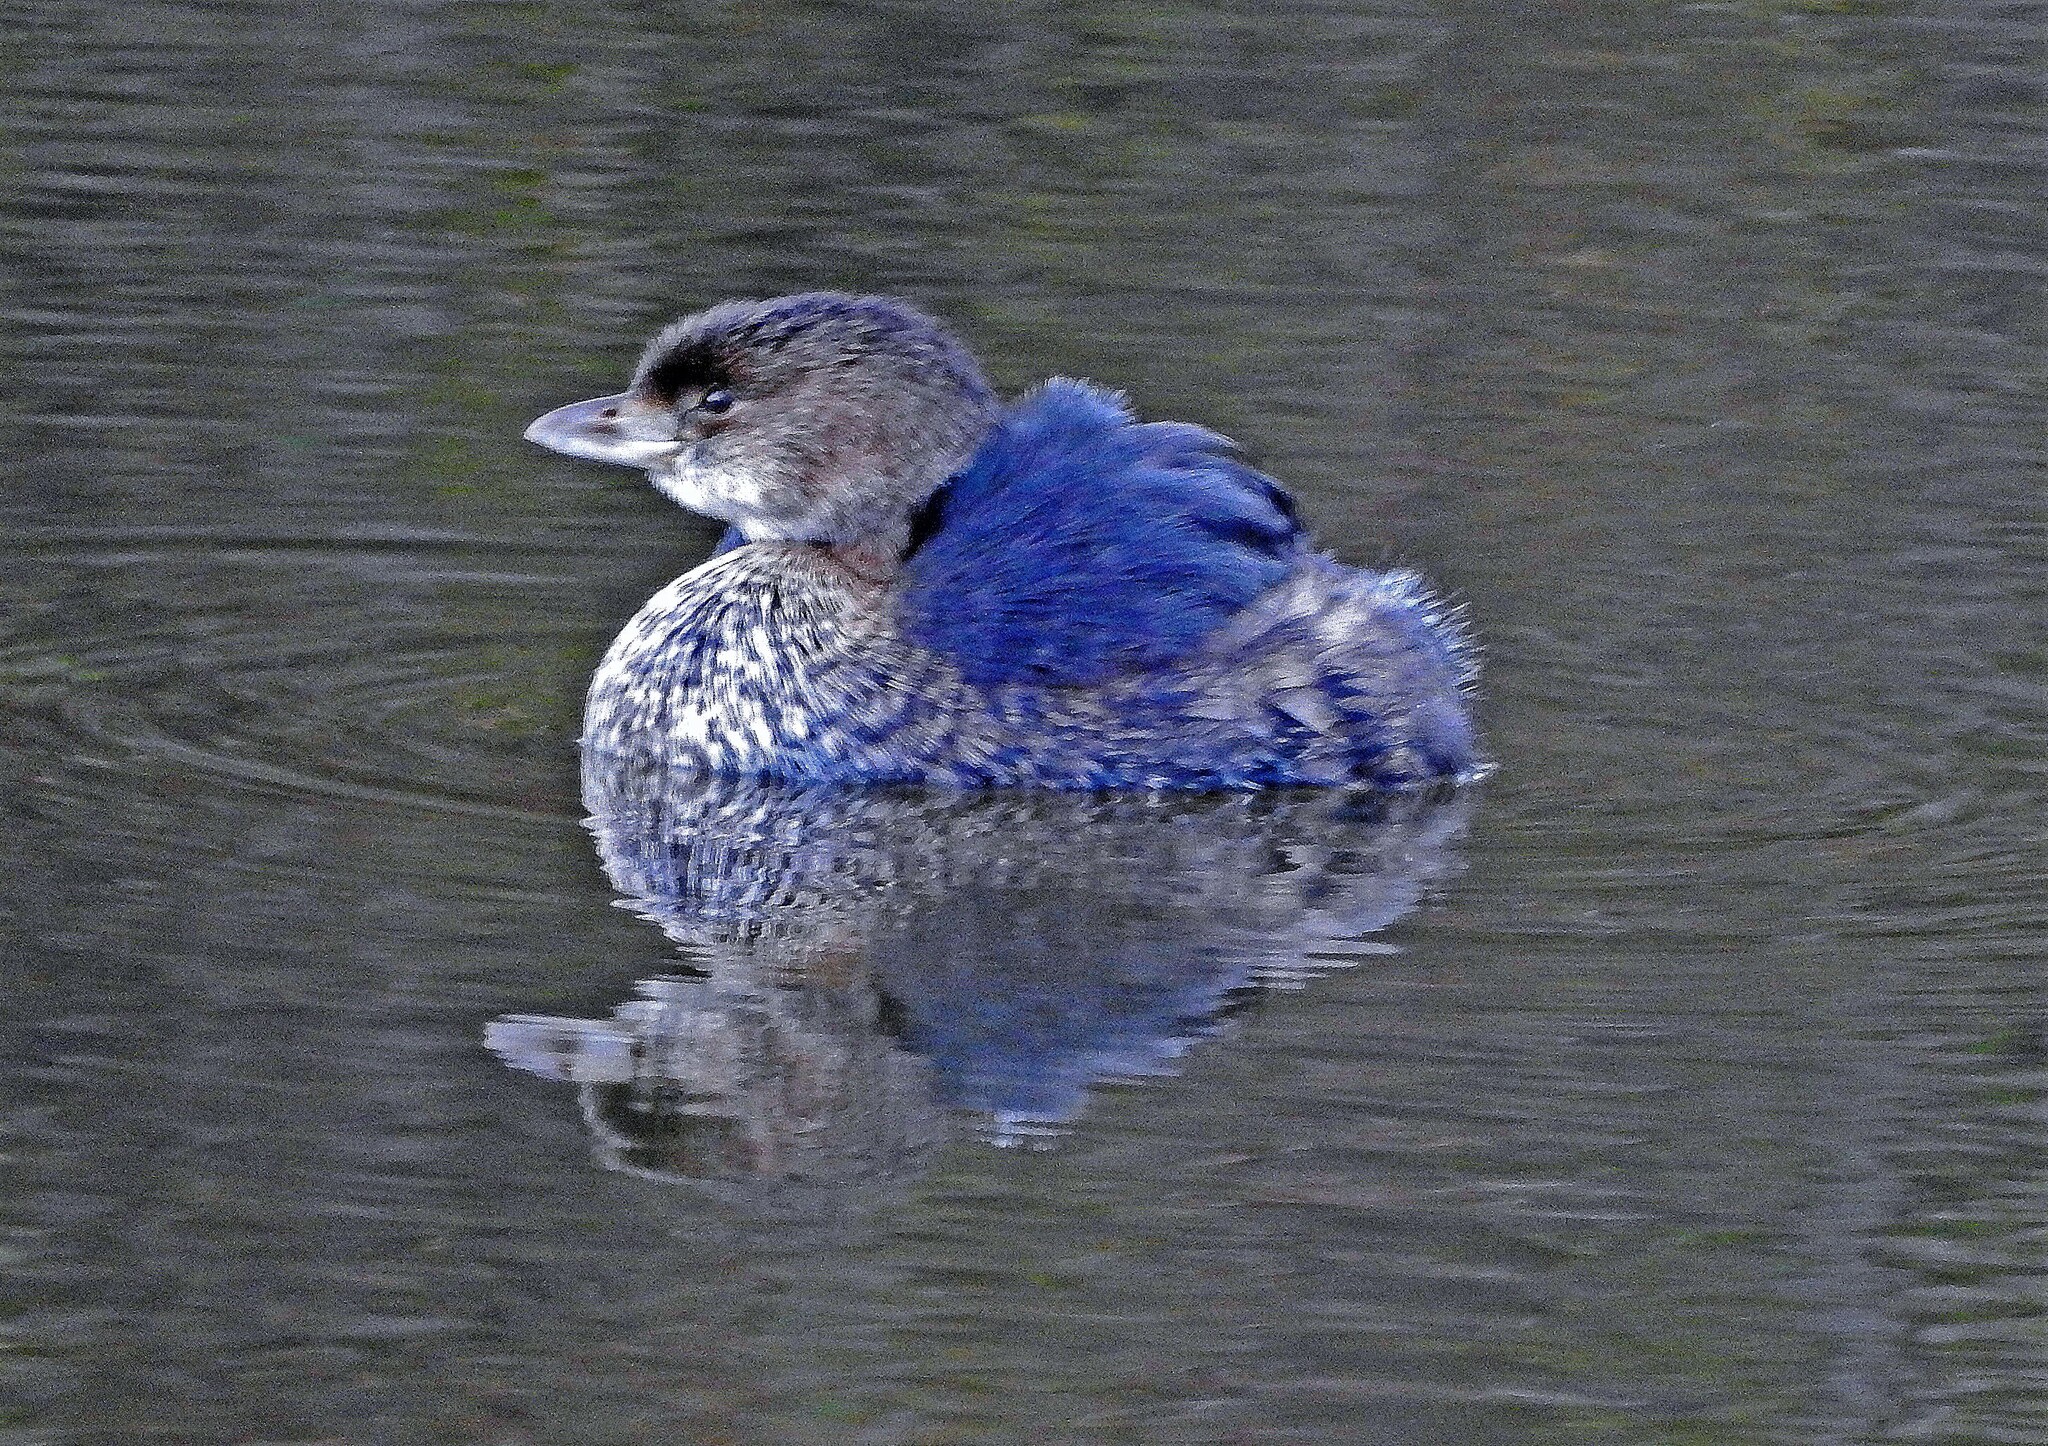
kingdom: Animalia
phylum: Chordata
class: Aves
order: Podicipediformes
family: Podicipedidae
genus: Podilymbus
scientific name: Podilymbus podiceps
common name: Pied-billed grebe
